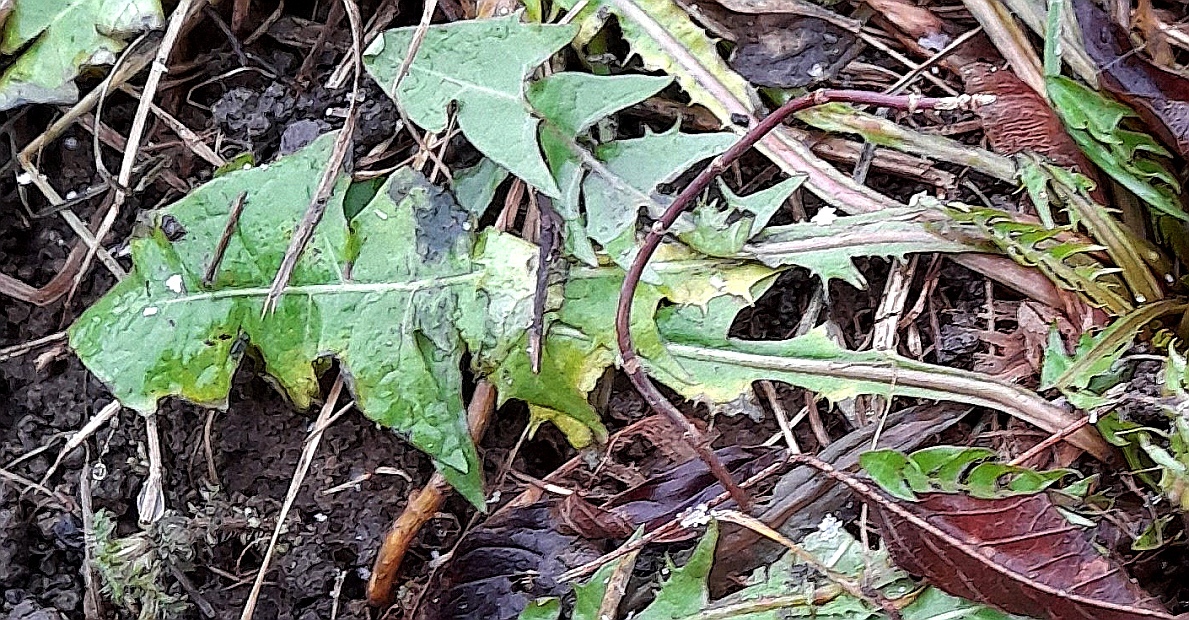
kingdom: Plantae
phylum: Tracheophyta
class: Magnoliopsida
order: Asterales
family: Asteraceae
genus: Taraxacum
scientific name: Taraxacum officinale
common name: Common dandelion
